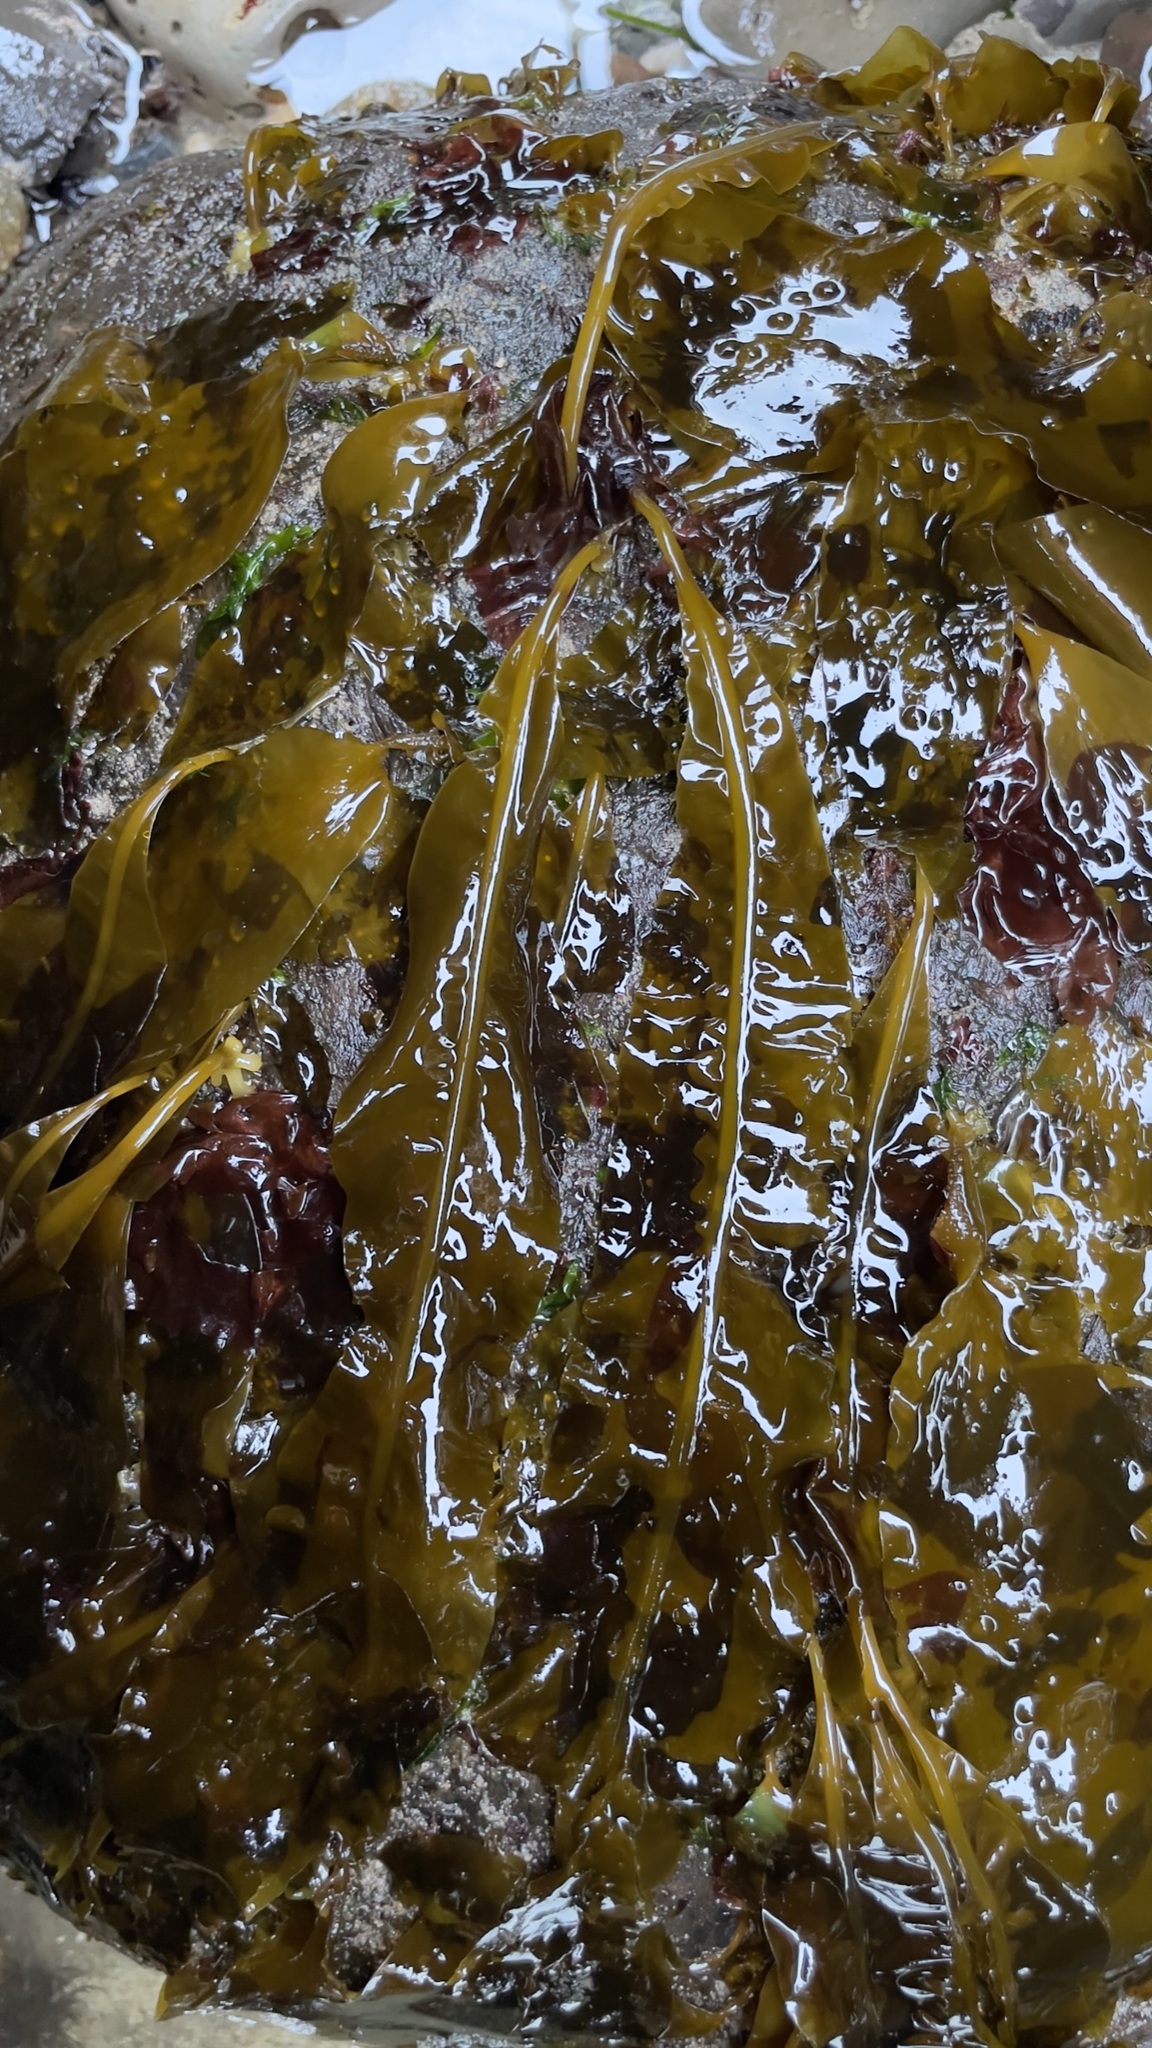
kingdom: Chromista
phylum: Ochrophyta
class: Phaeophyceae
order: Laminariales
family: Alariaceae
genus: Alaria
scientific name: Alaria marginata
